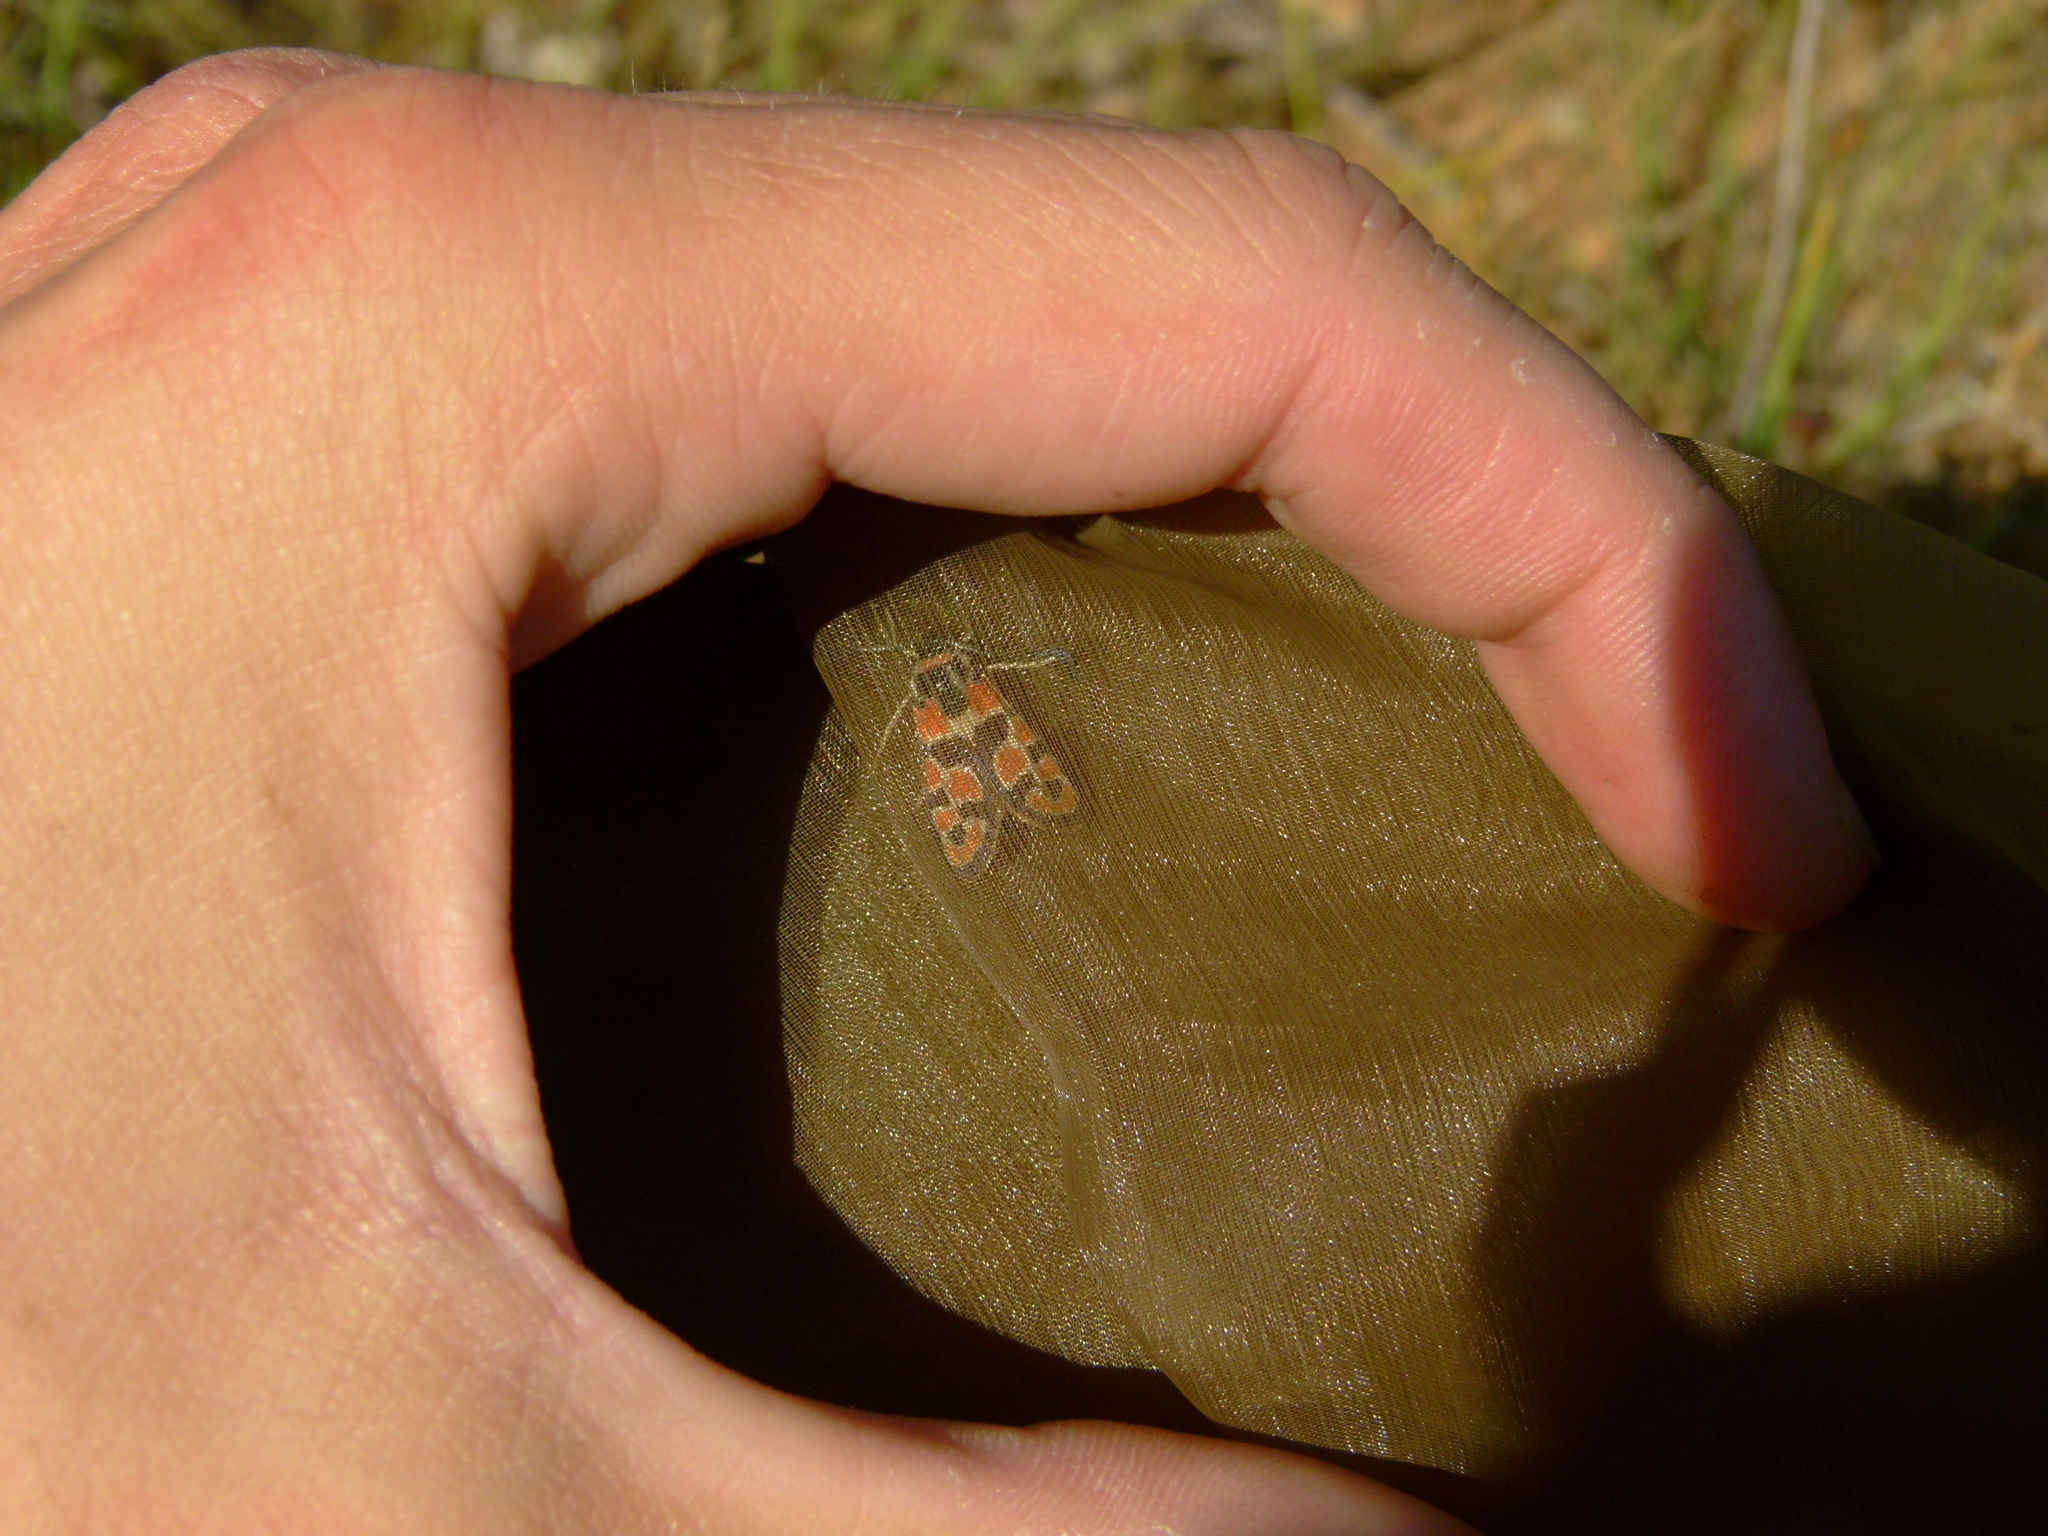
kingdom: Animalia
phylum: Arthropoda
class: Insecta
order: Lepidoptera
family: Zygaenidae
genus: Zygaena
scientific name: Zygaena fausta
